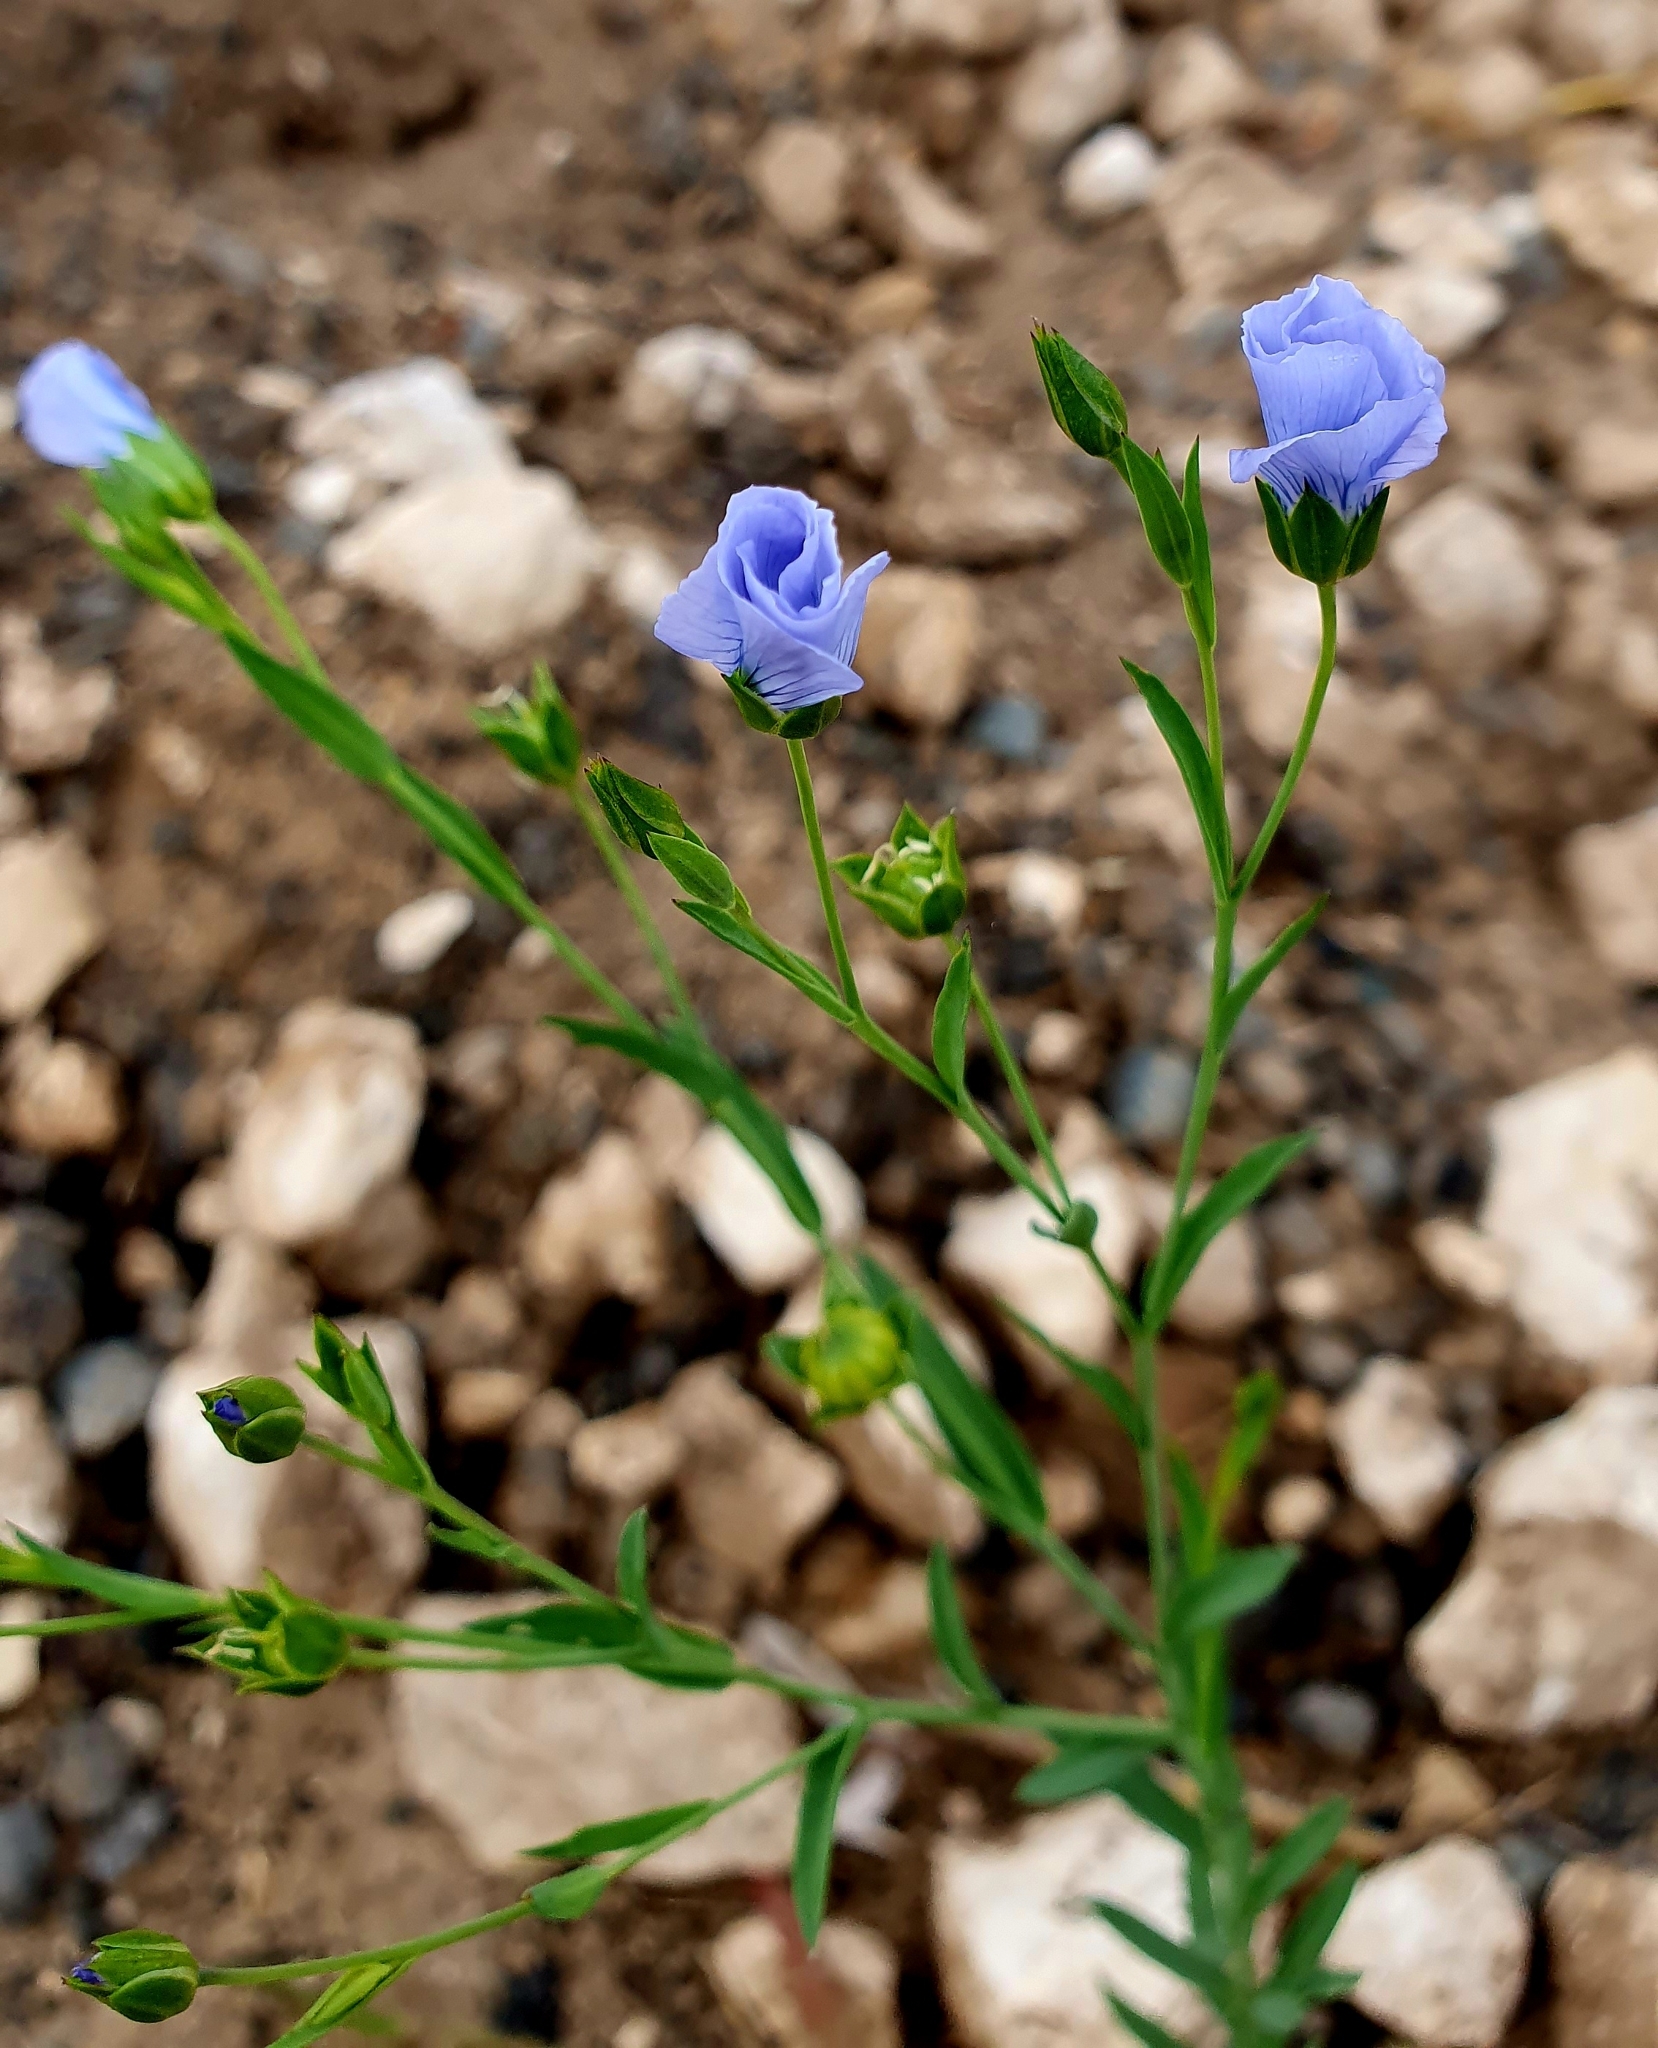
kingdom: Plantae
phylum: Tracheophyta
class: Magnoliopsida
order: Malpighiales
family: Linaceae
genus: Linum
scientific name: Linum usitatissimum
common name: Flax
